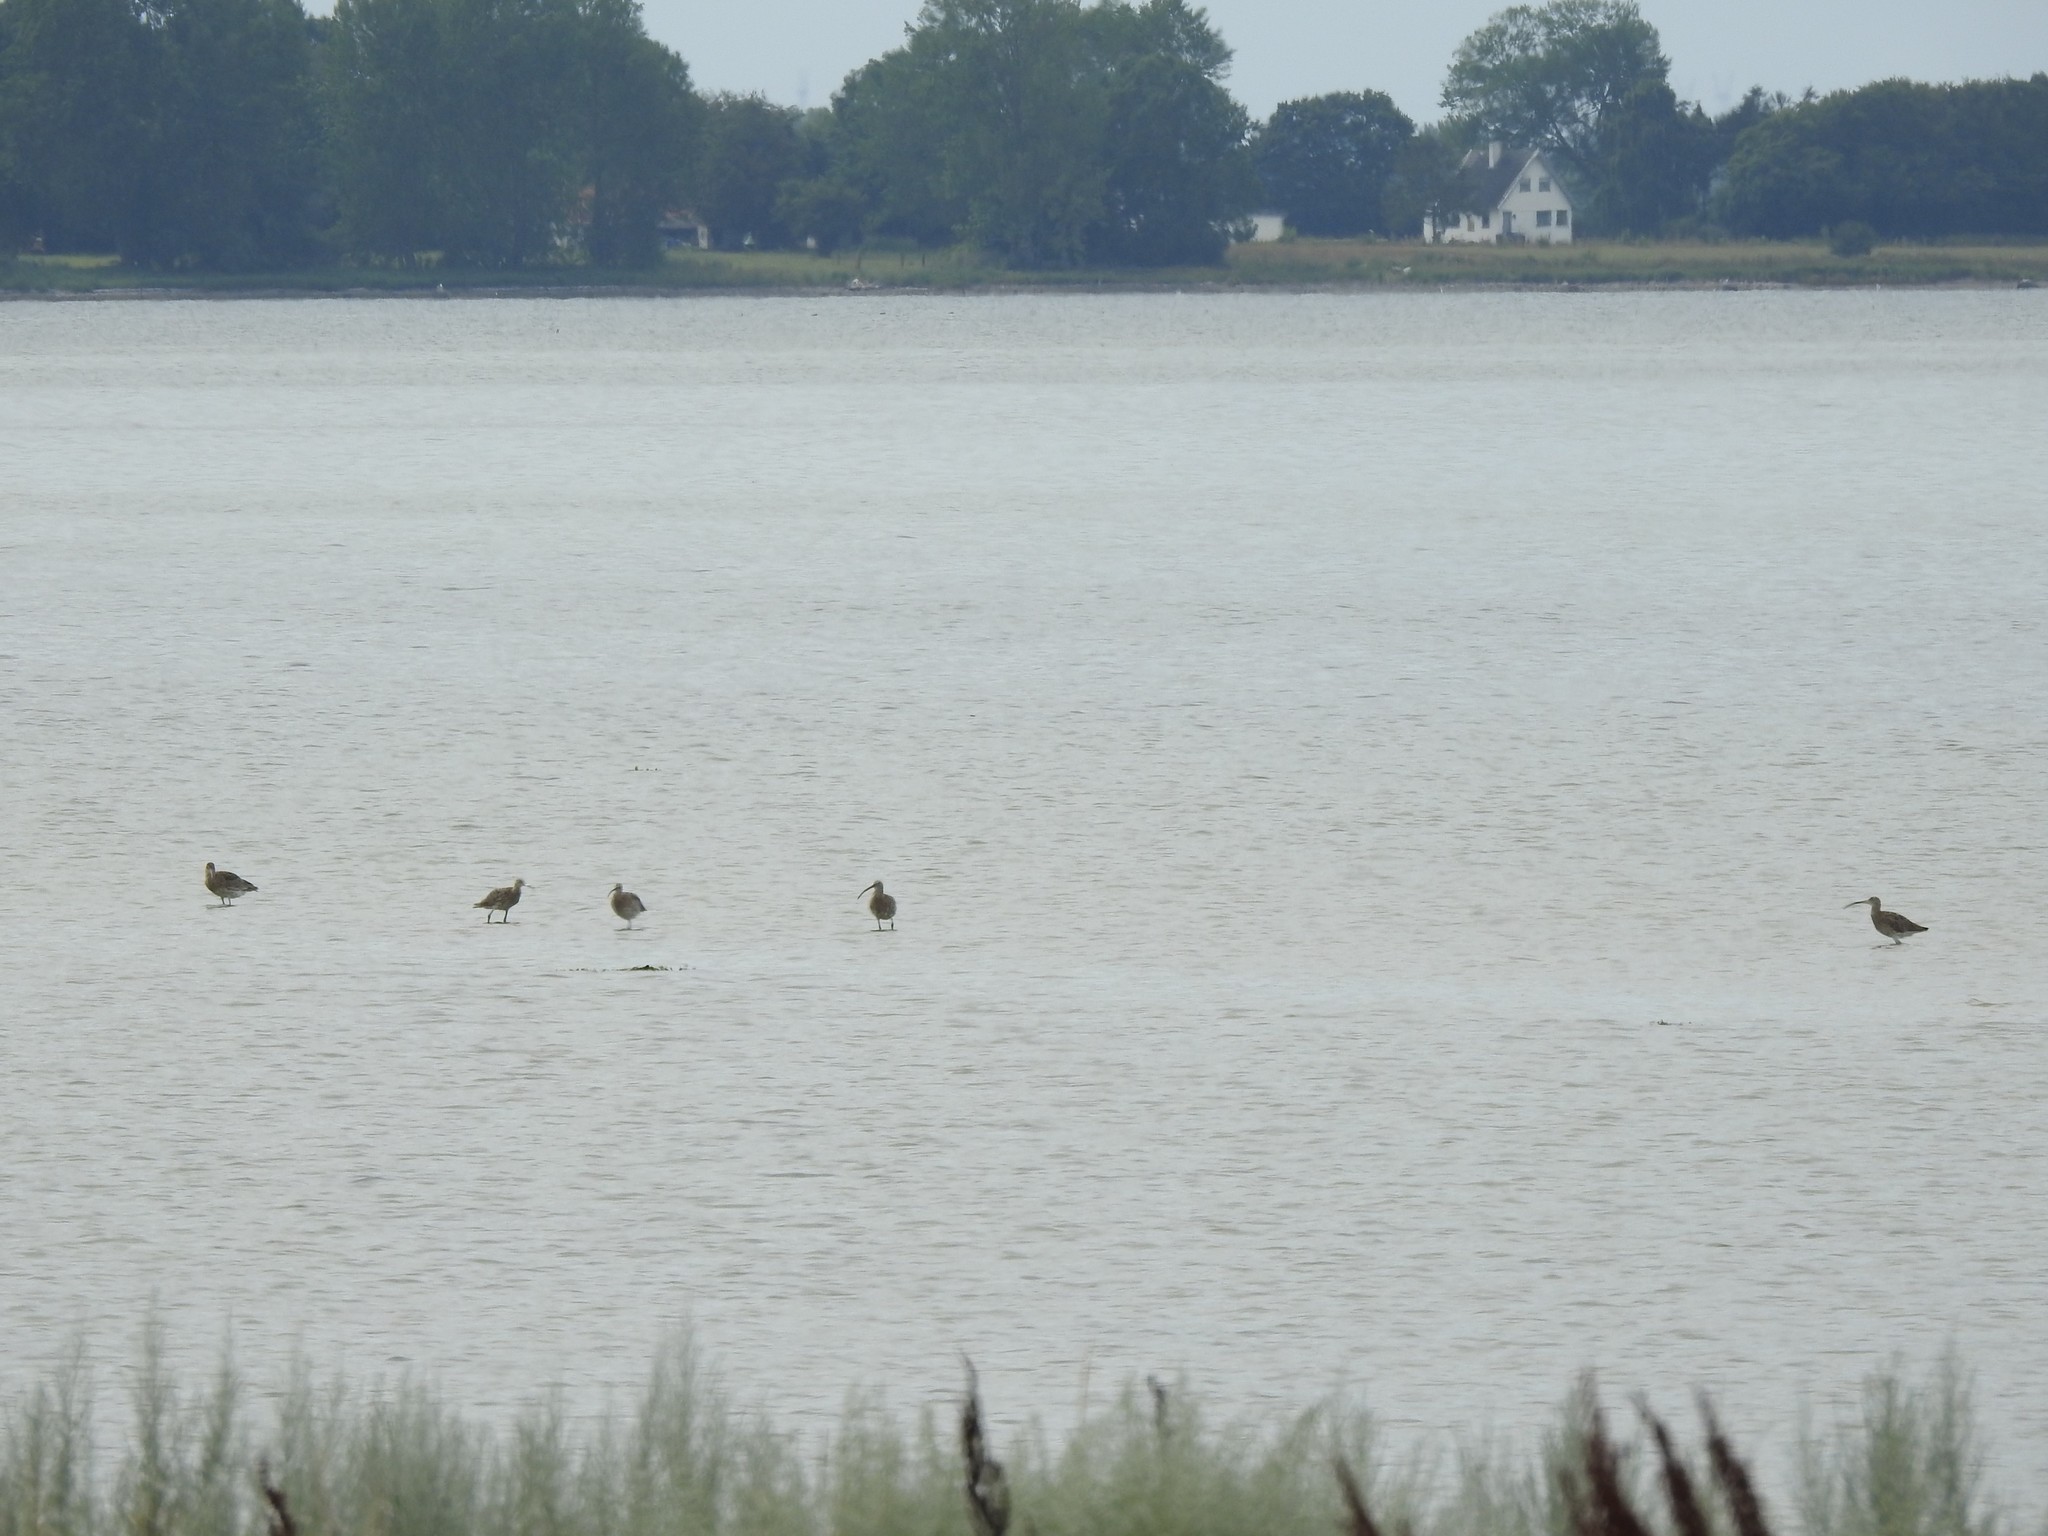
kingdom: Animalia
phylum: Chordata
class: Aves
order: Charadriiformes
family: Scolopacidae
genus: Numenius
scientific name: Numenius arquata
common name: Eurasian curlew
